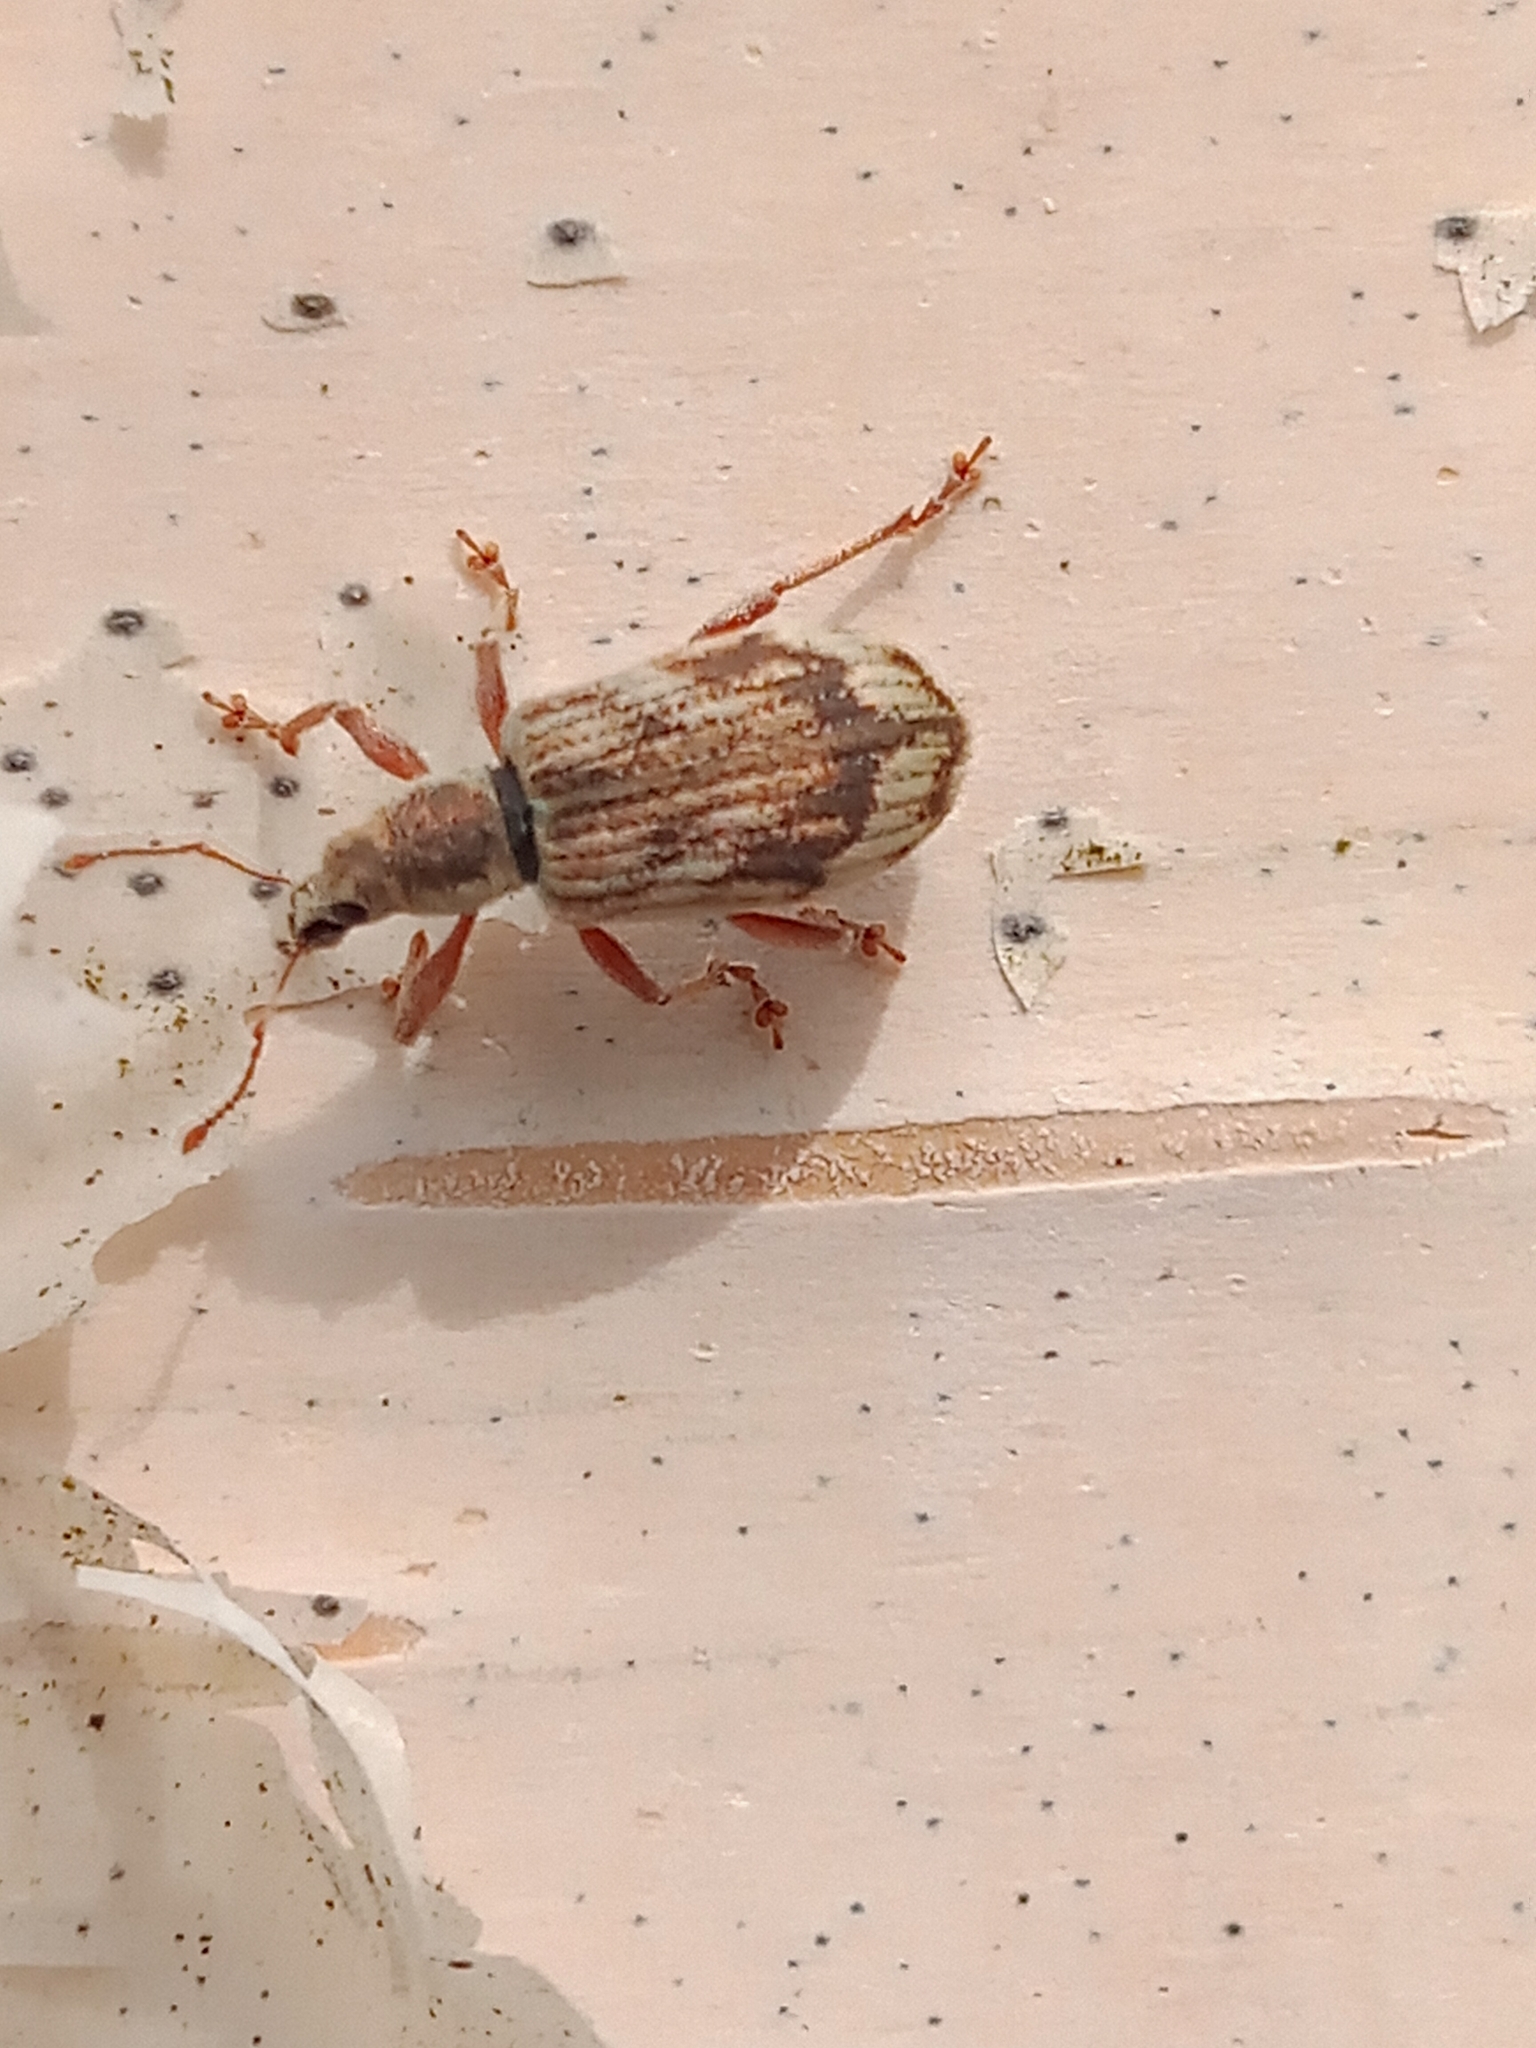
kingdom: Animalia
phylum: Arthropoda
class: Insecta
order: Coleoptera
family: Curculionidae
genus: Polydrusus
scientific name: Polydrusus tereticollis
